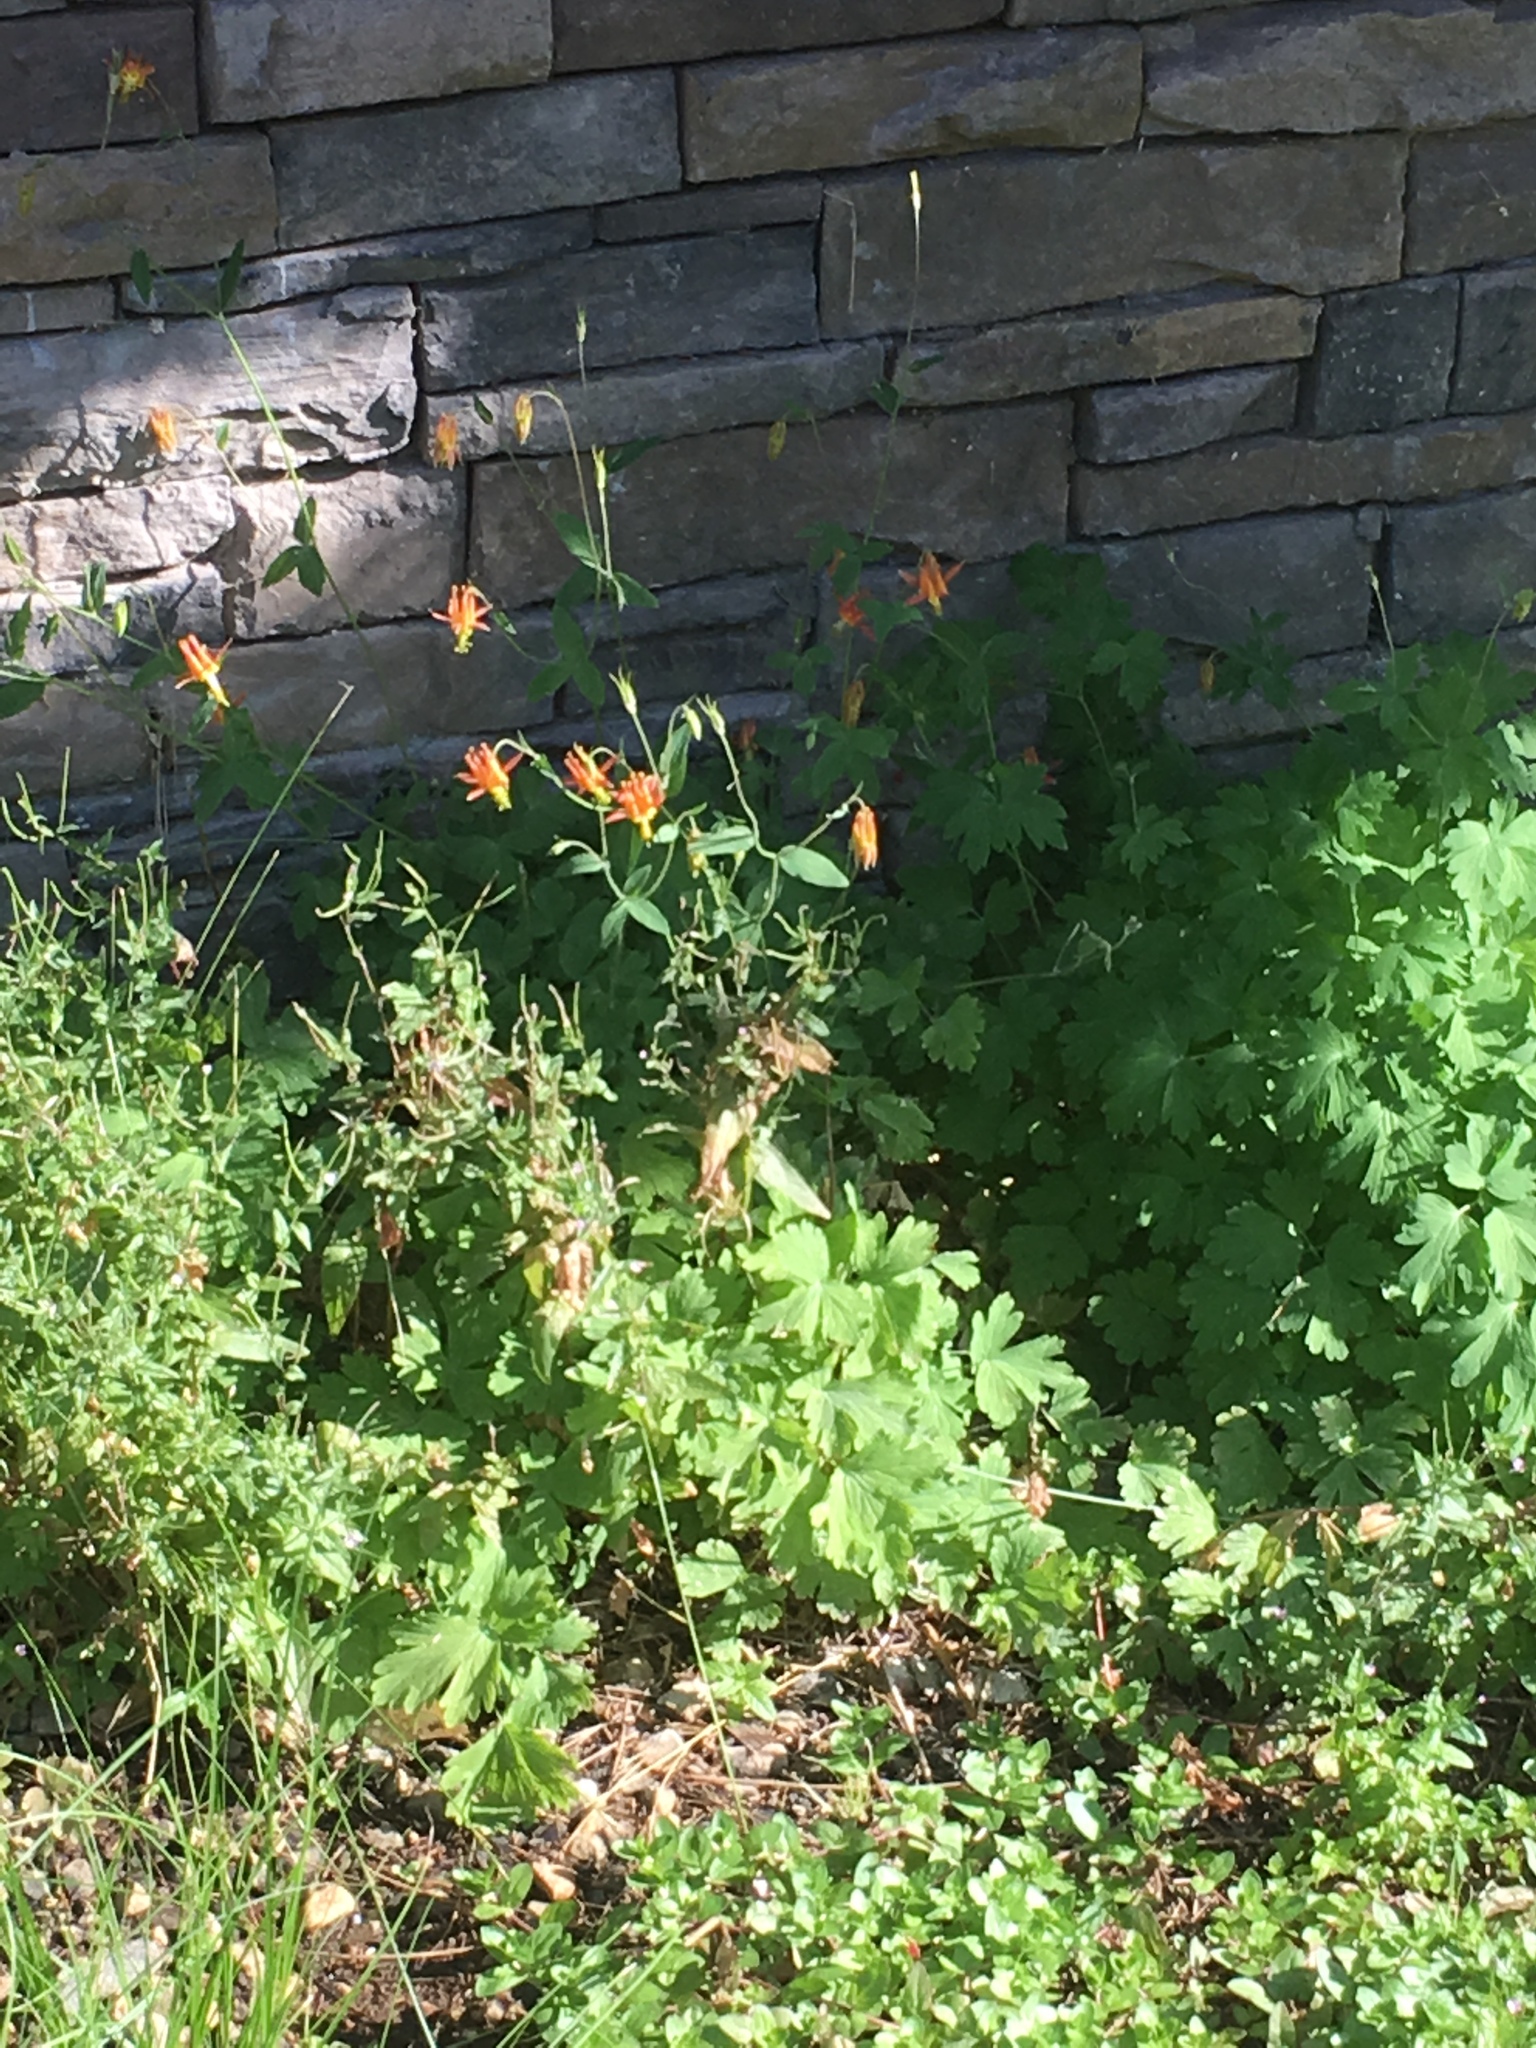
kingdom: Plantae
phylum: Tracheophyta
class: Magnoliopsida
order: Ranunculales
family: Ranunculaceae
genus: Aquilegia
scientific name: Aquilegia formosa
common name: Sitka columbine
